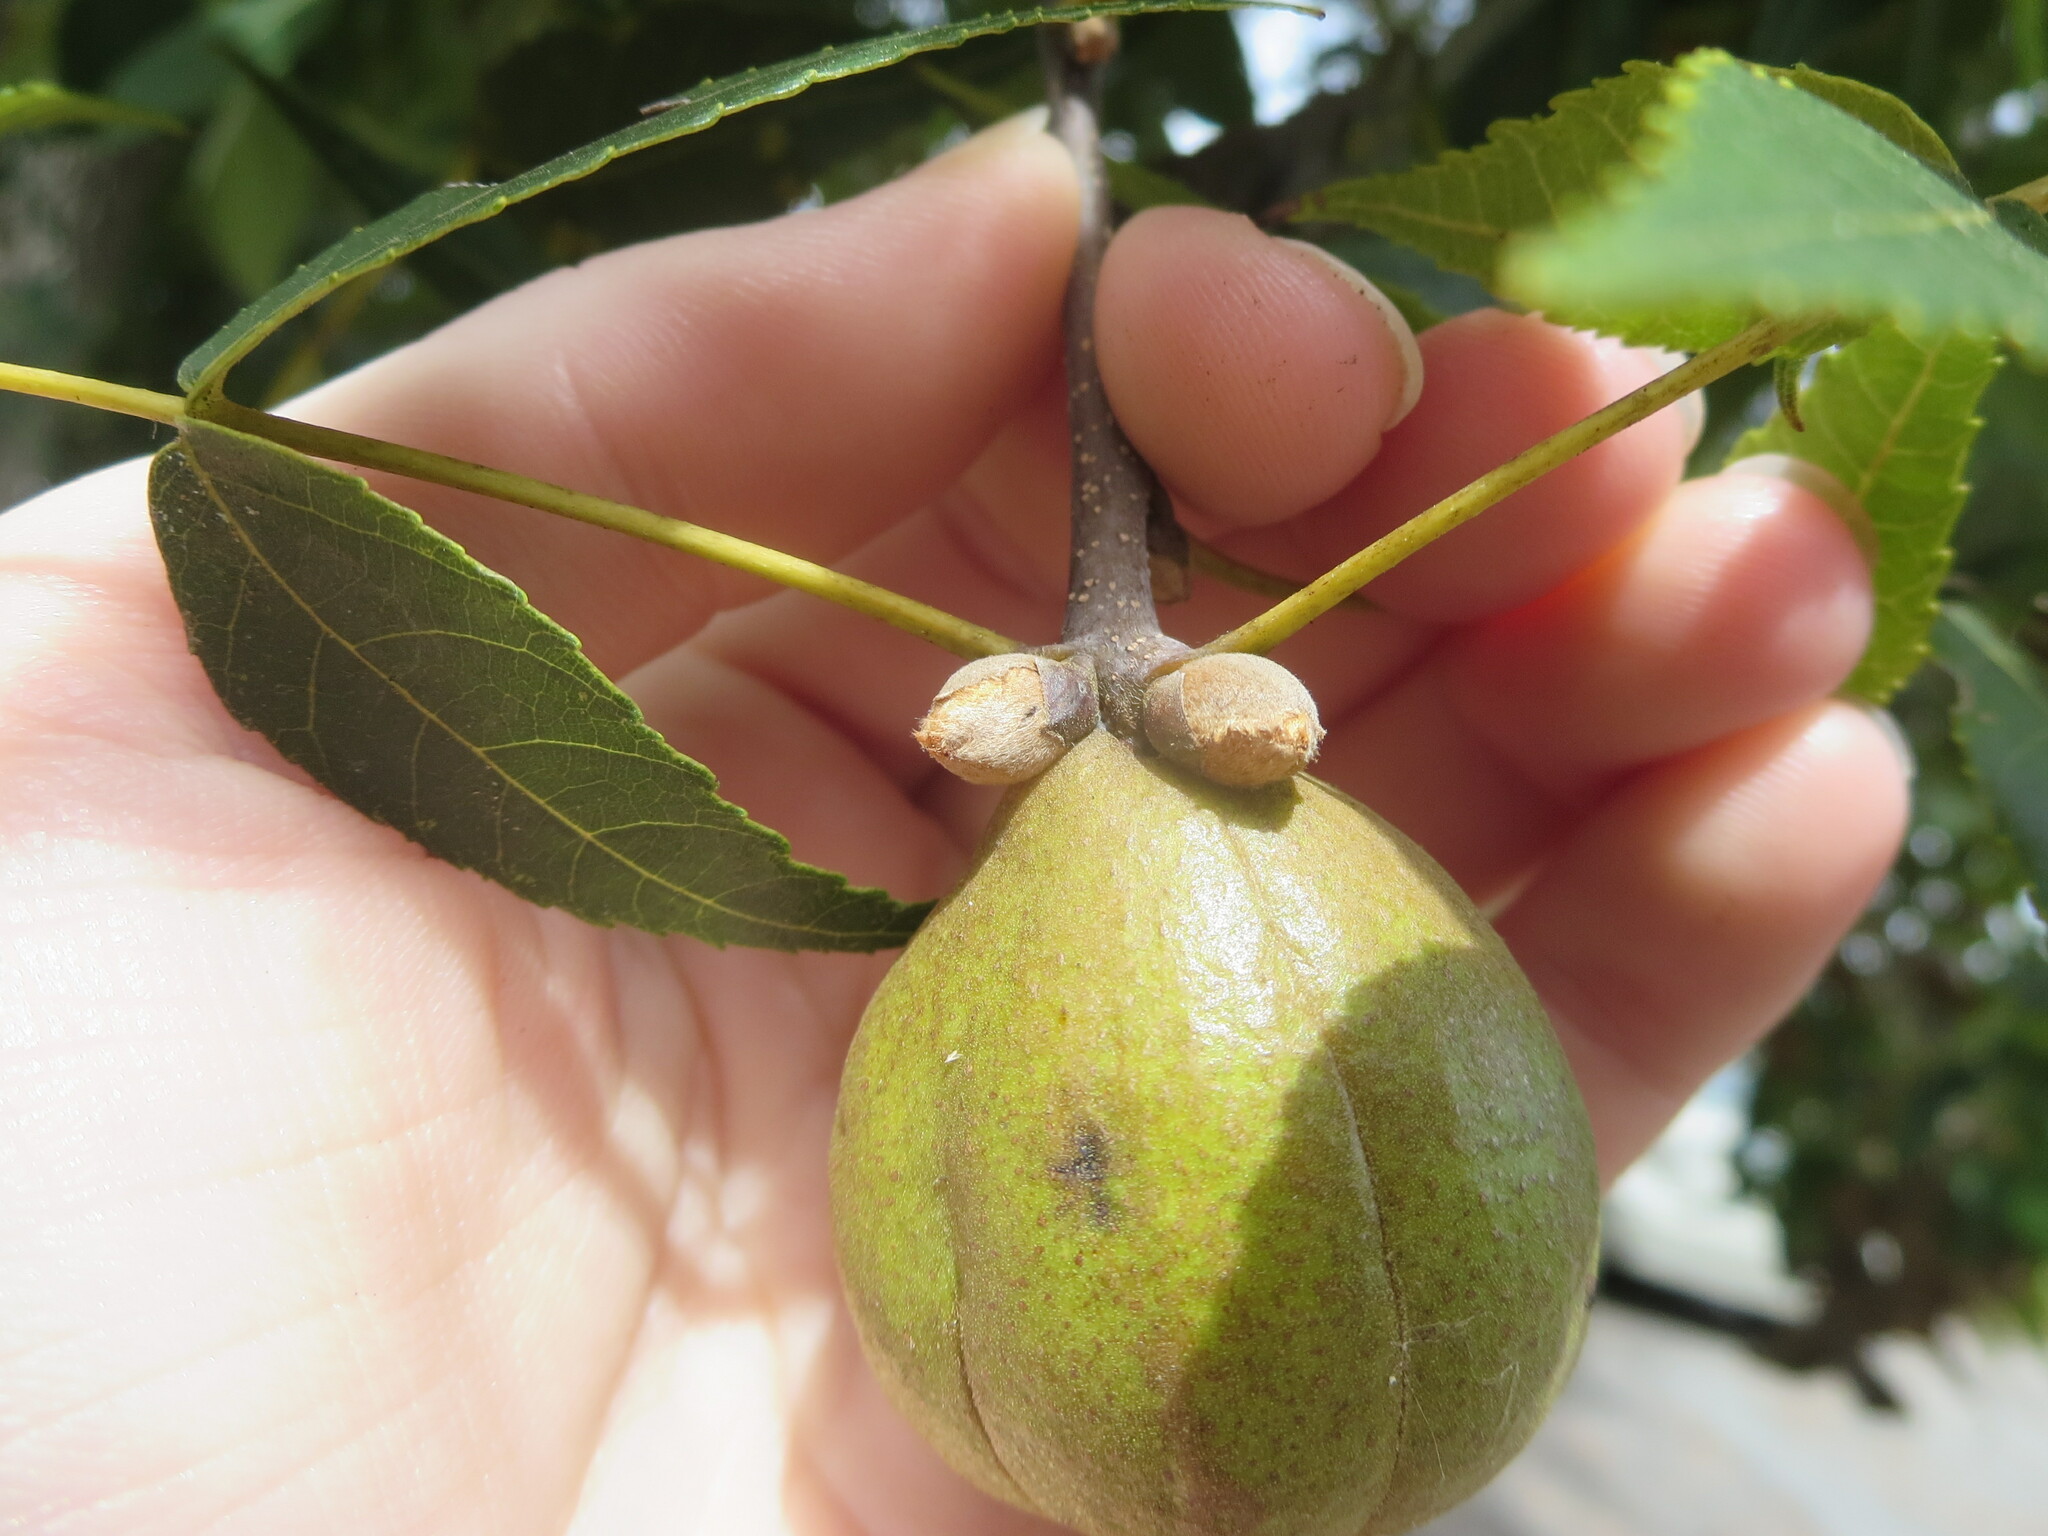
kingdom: Plantae
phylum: Tracheophyta
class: Magnoliopsida
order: Fagales
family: Juglandaceae
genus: Carya
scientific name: Carya glabra
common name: Pignut hickory
